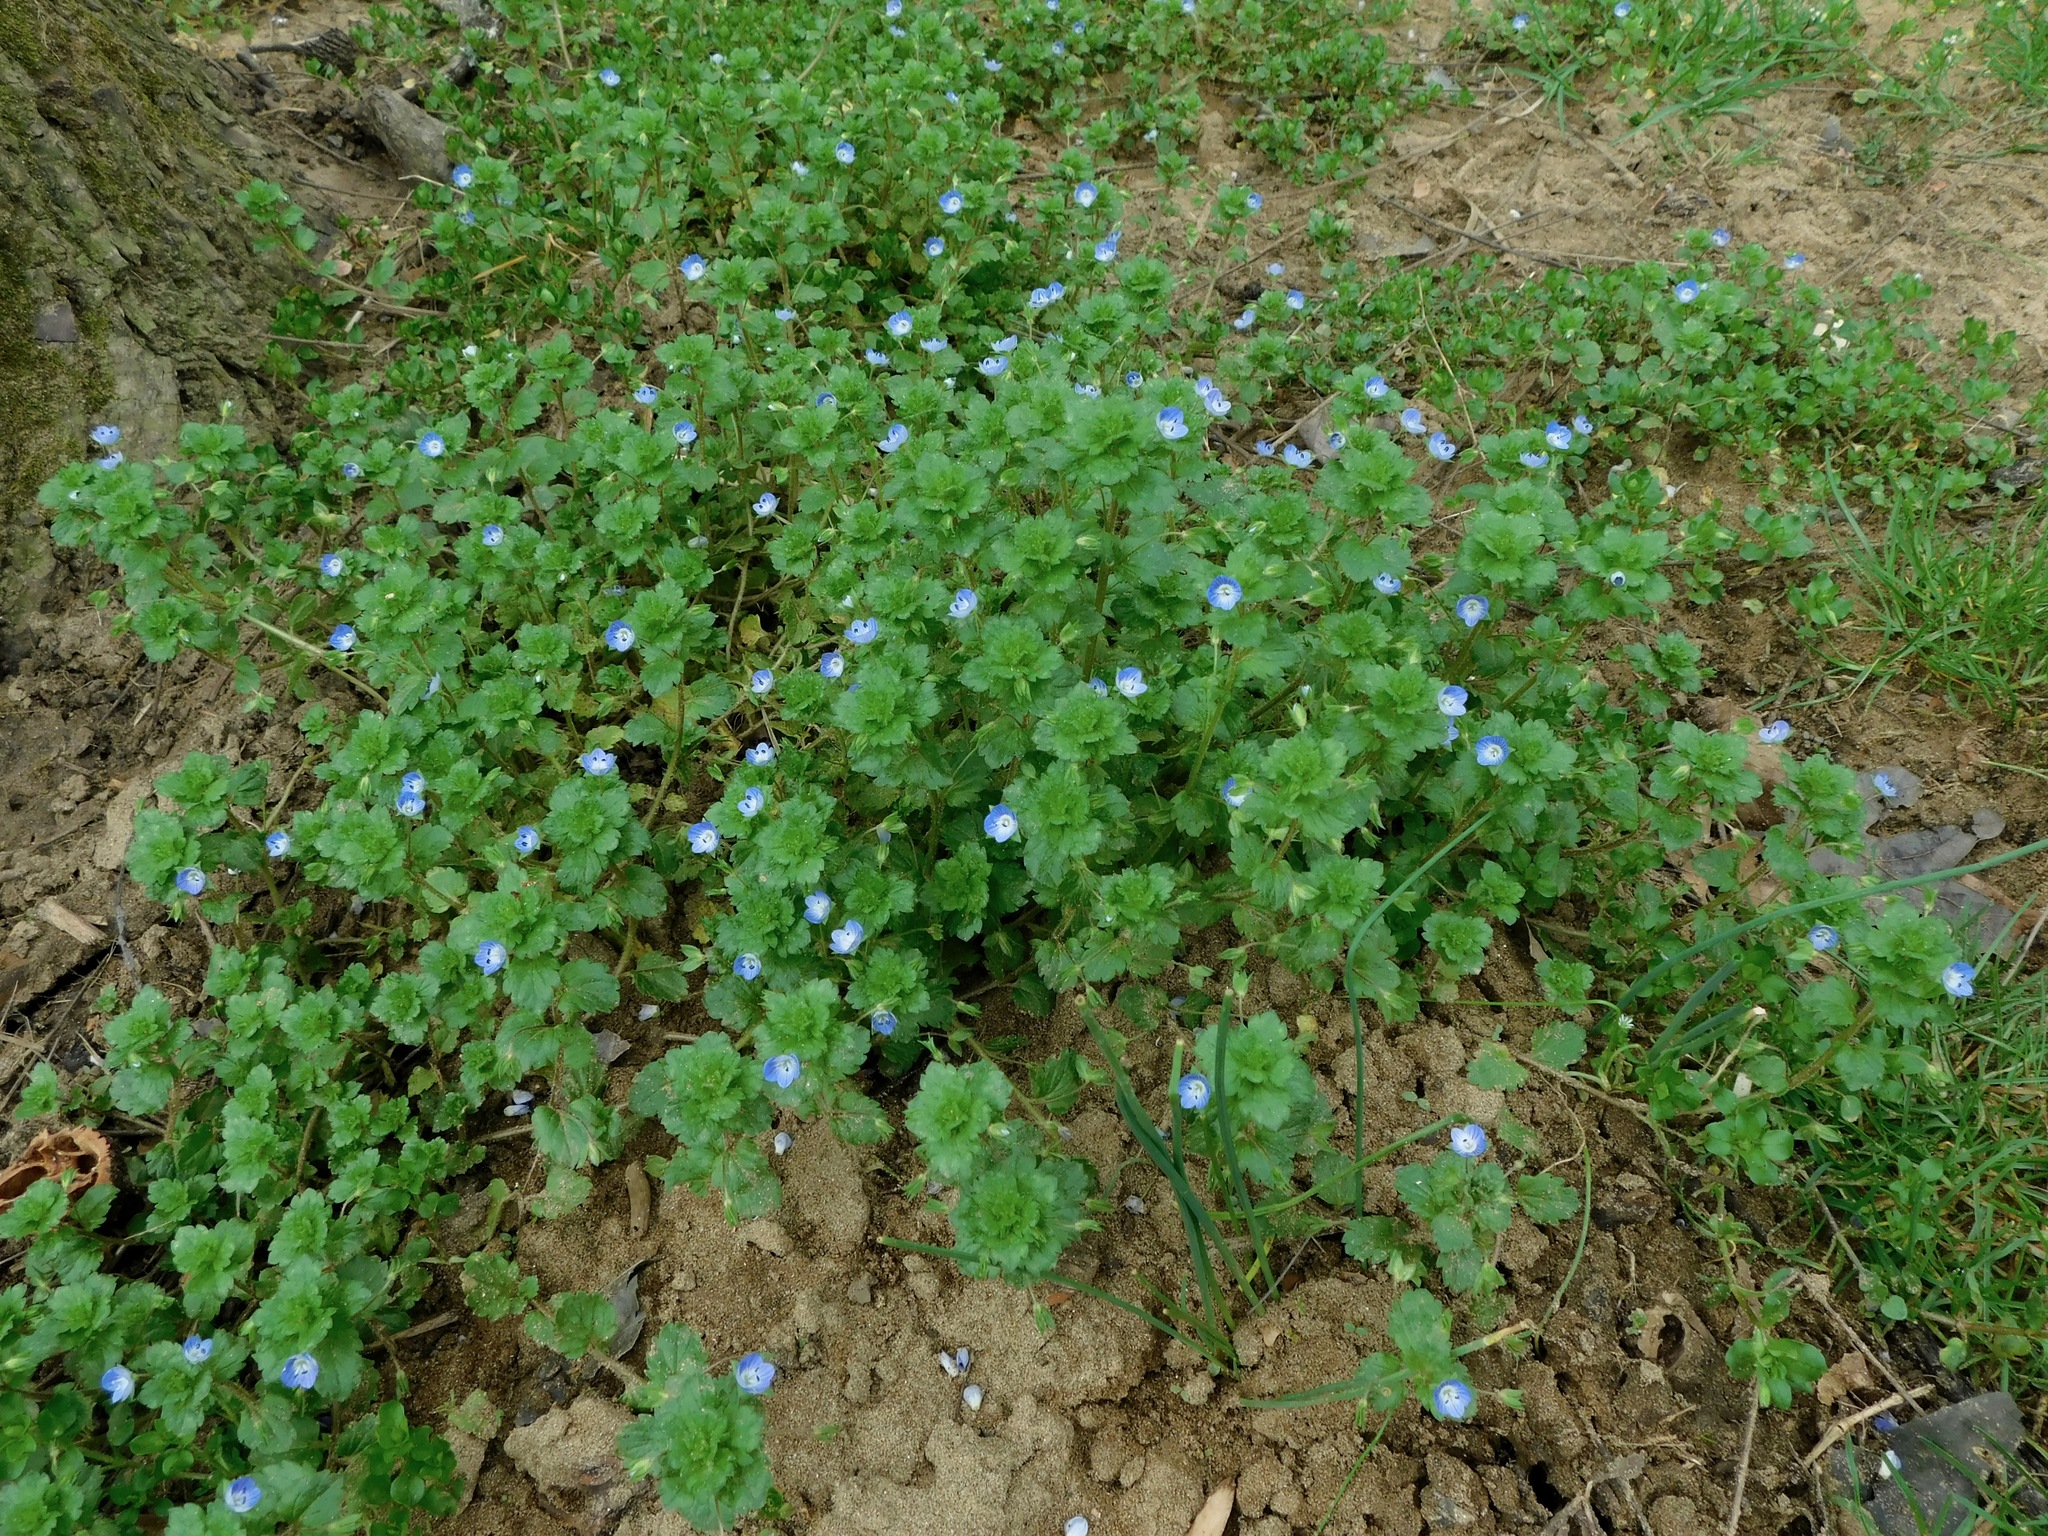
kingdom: Plantae
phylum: Tracheophyta
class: Magnoliopsida
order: Lamiales
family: Plantaginaceae
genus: Veronica
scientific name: Veronica hederifolia
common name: Ivy-leaved speedwell
